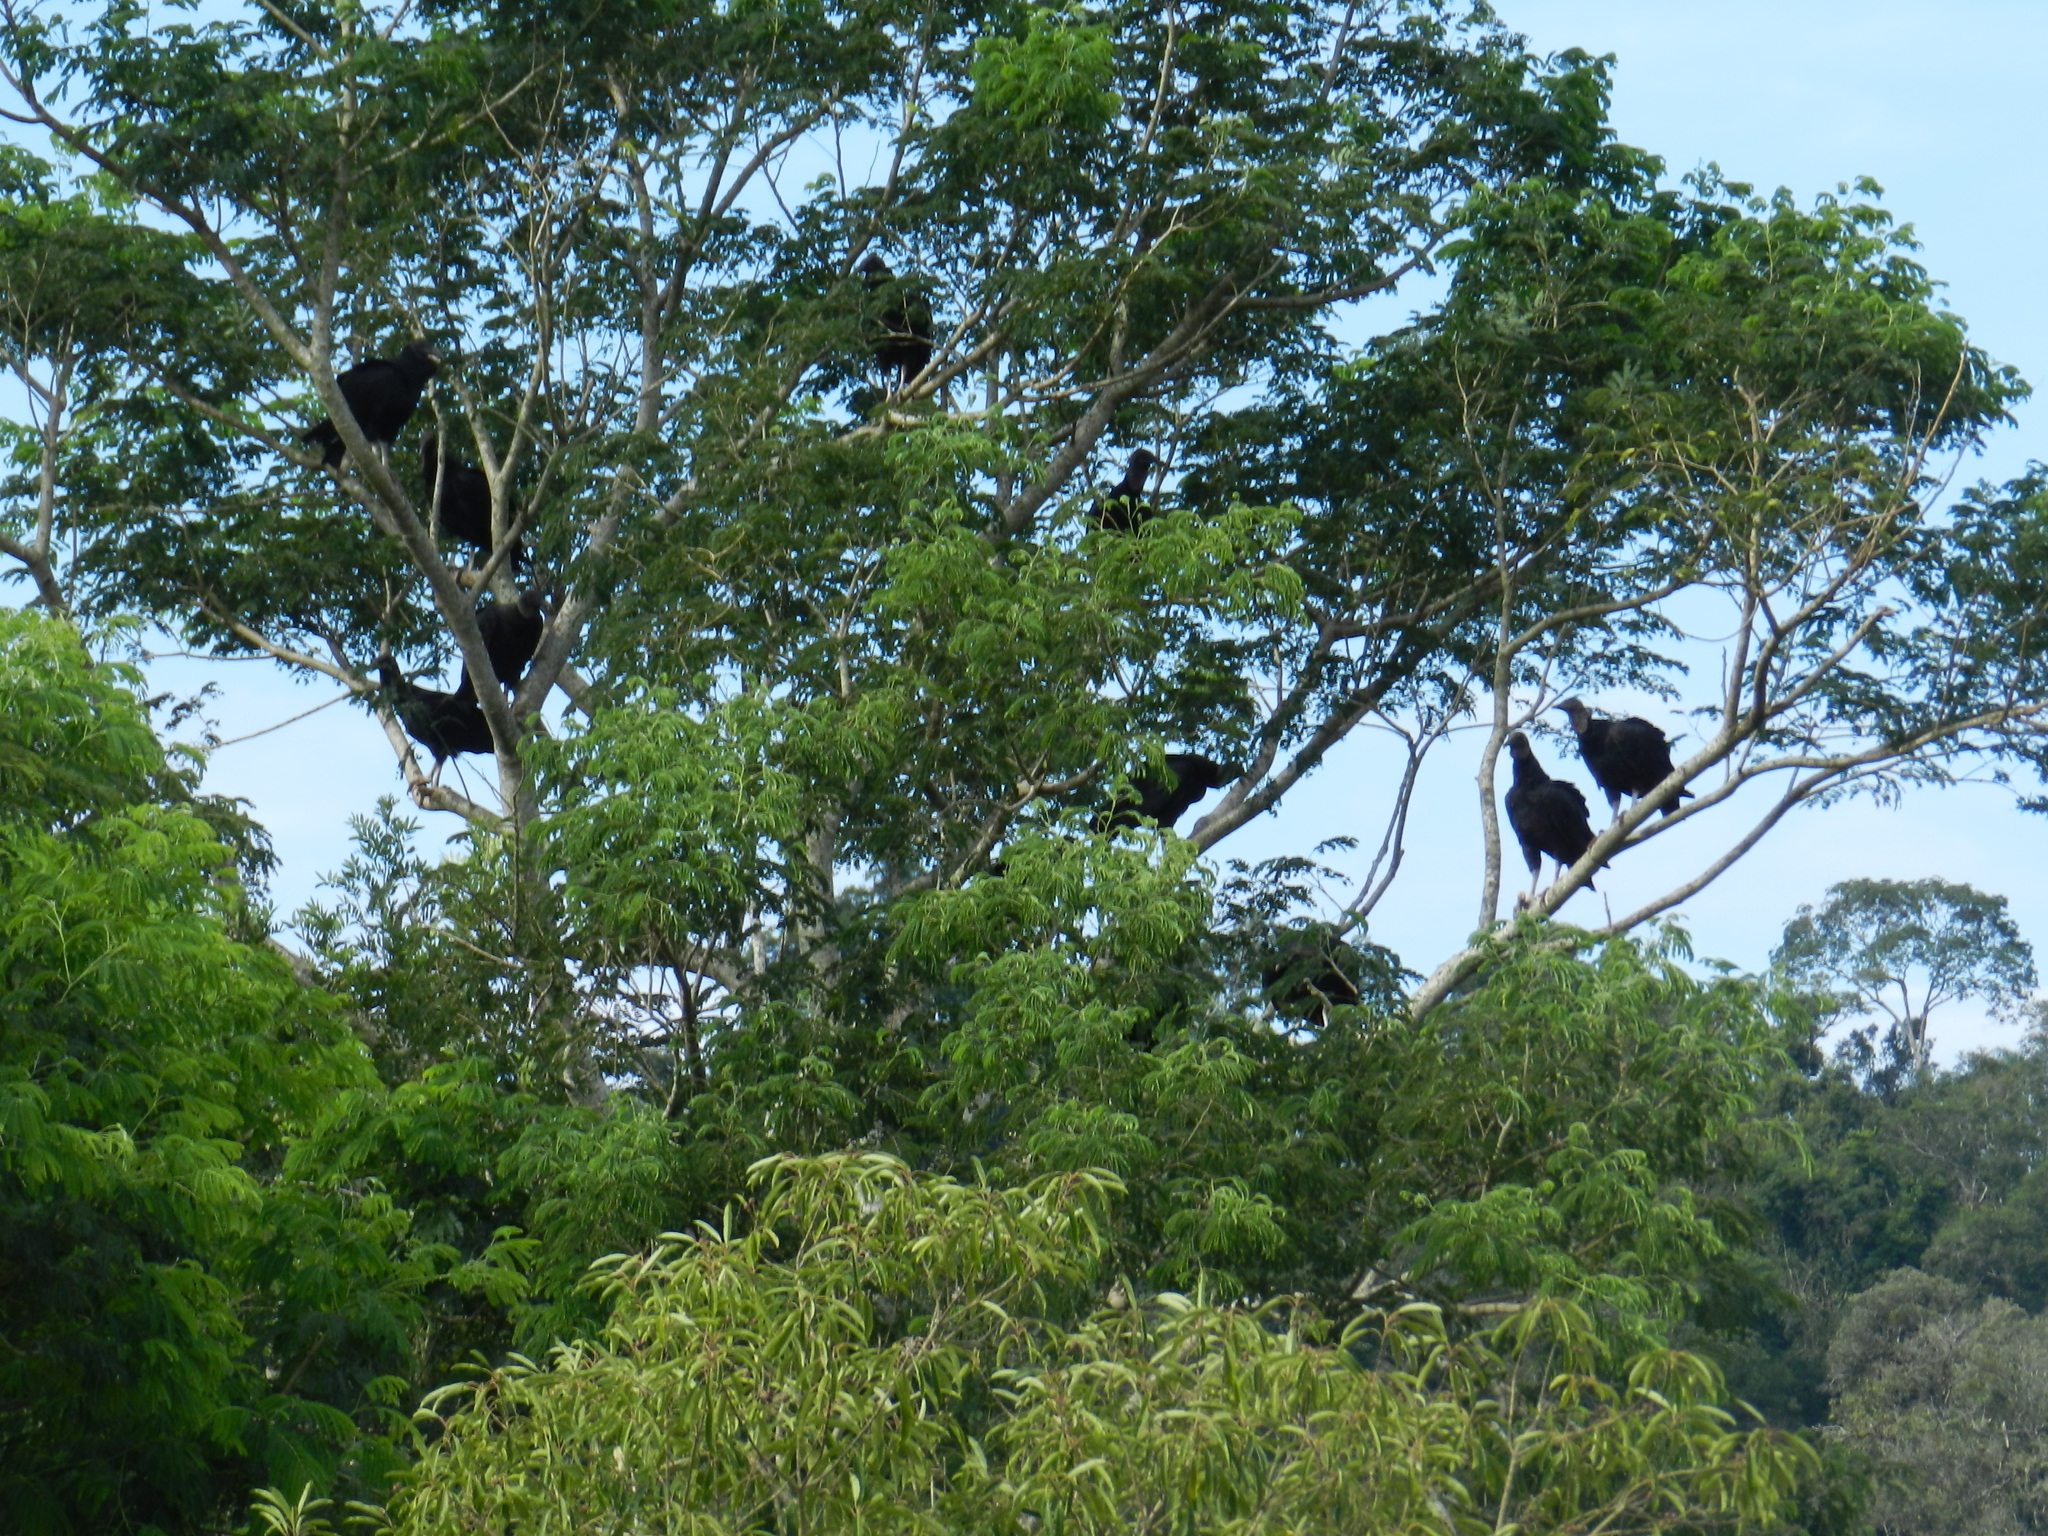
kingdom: Animalia
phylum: Chordata
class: Aves
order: Accipitriformes
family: Cathartidae
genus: Coragyps
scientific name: Coragyps atratus
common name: Black vulture
